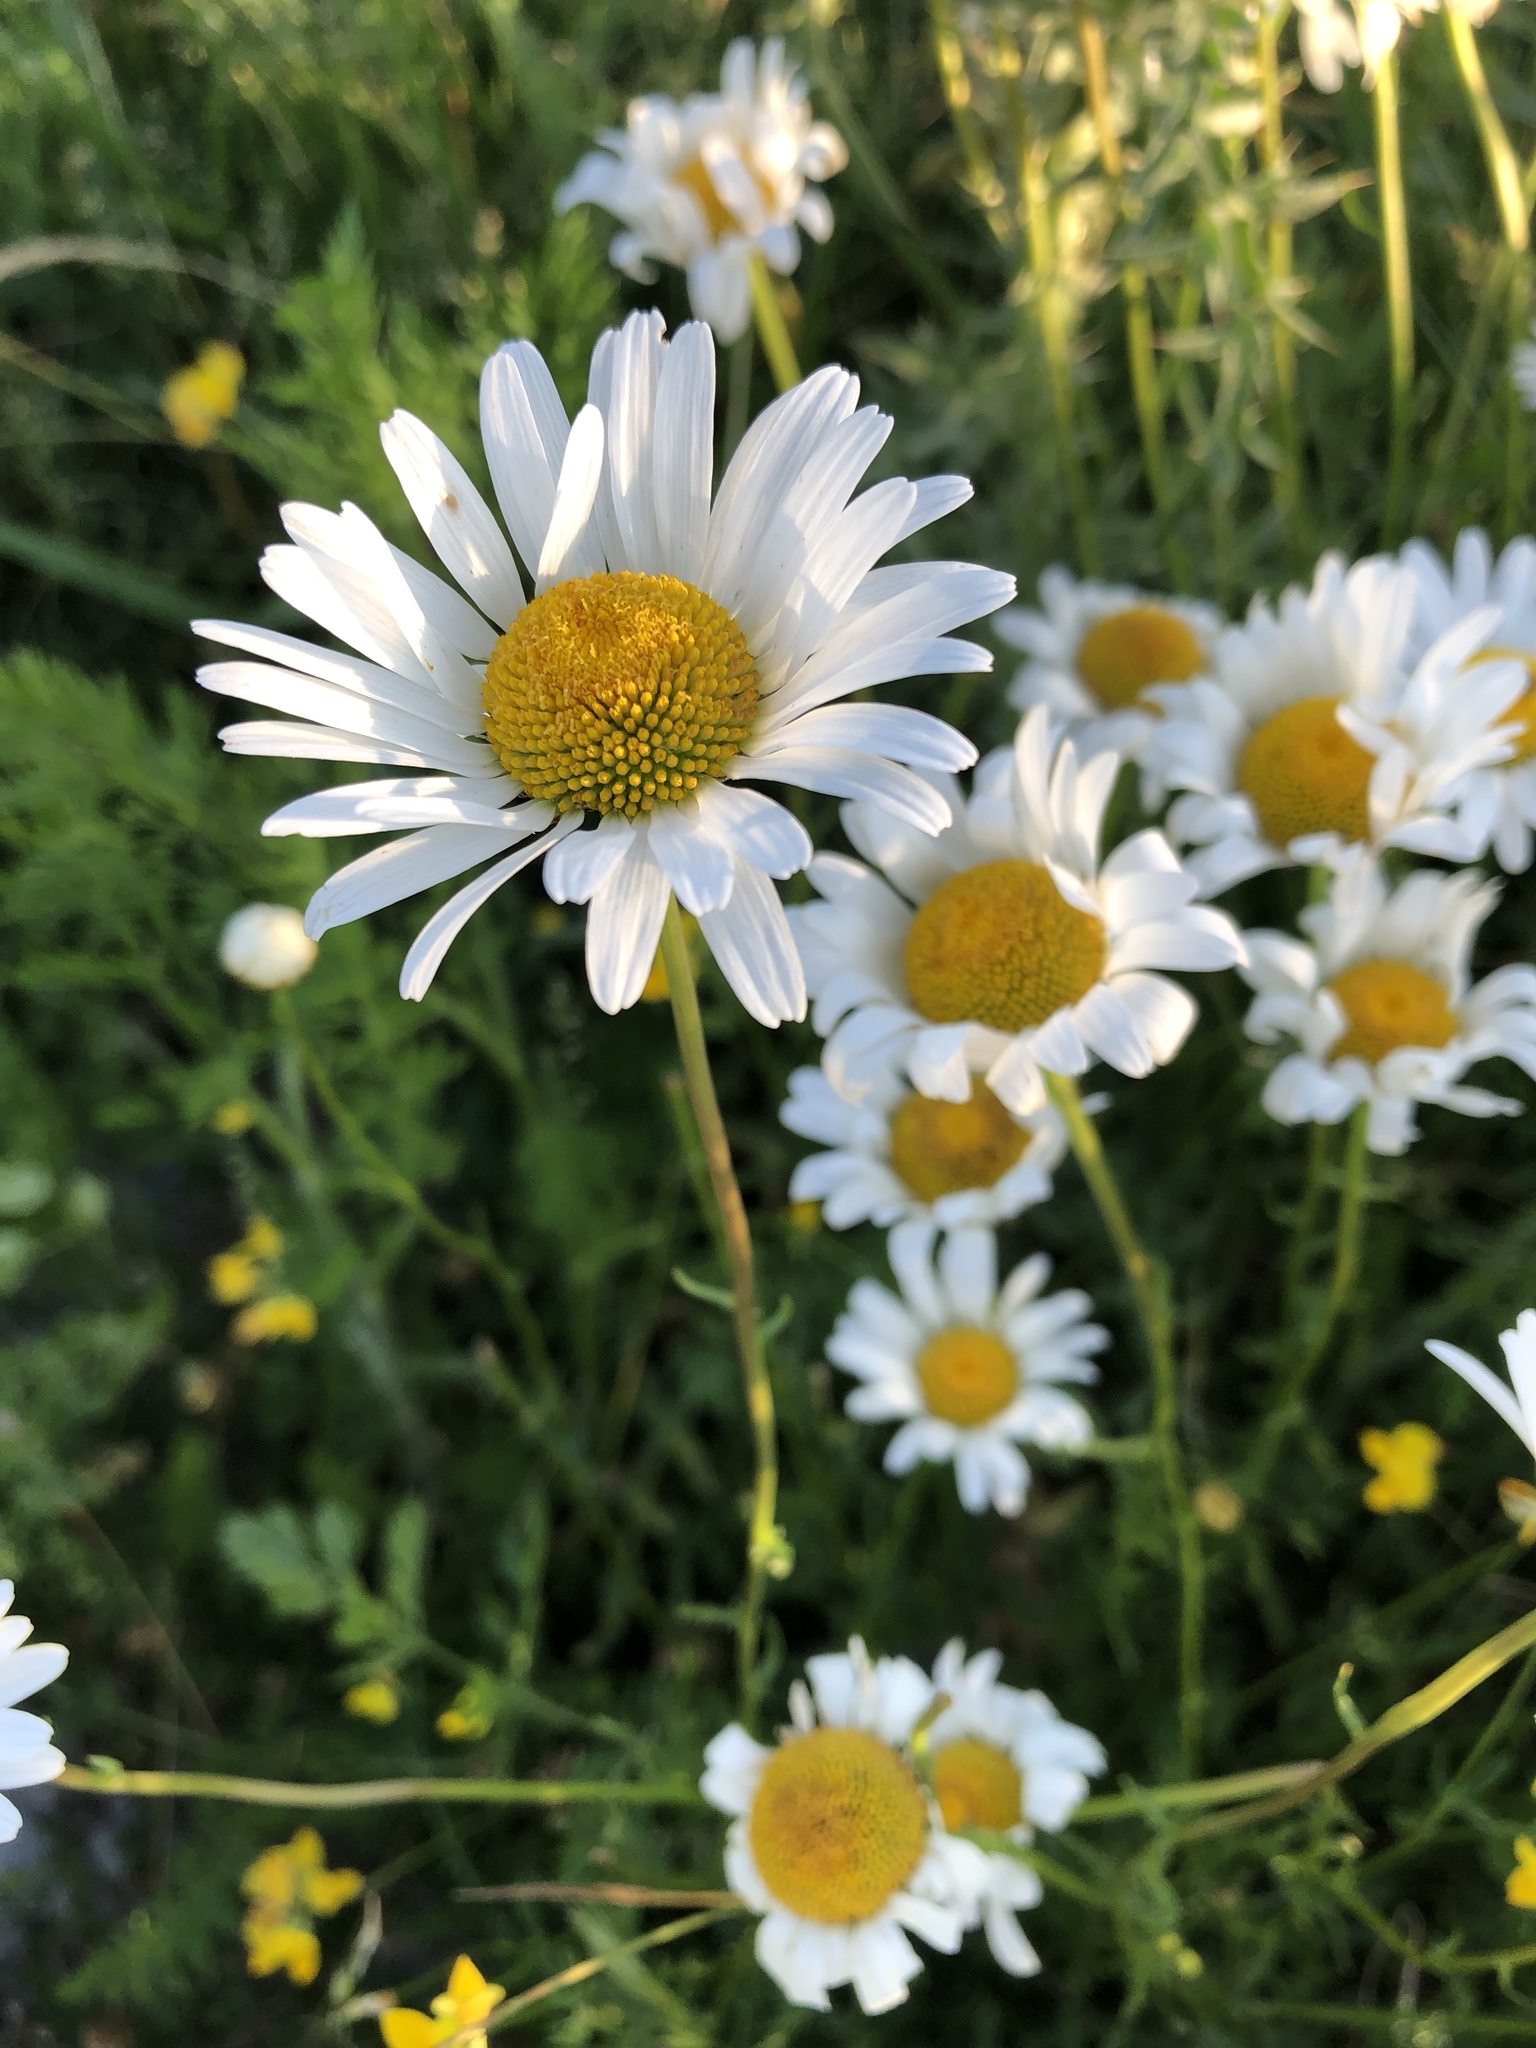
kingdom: Plantae
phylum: Tracheophyta
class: Magnoliopsida
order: Asterales
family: Asteraceae
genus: Leucanthemum
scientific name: Leucanthemum vulgare
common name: Oxeye daisy
